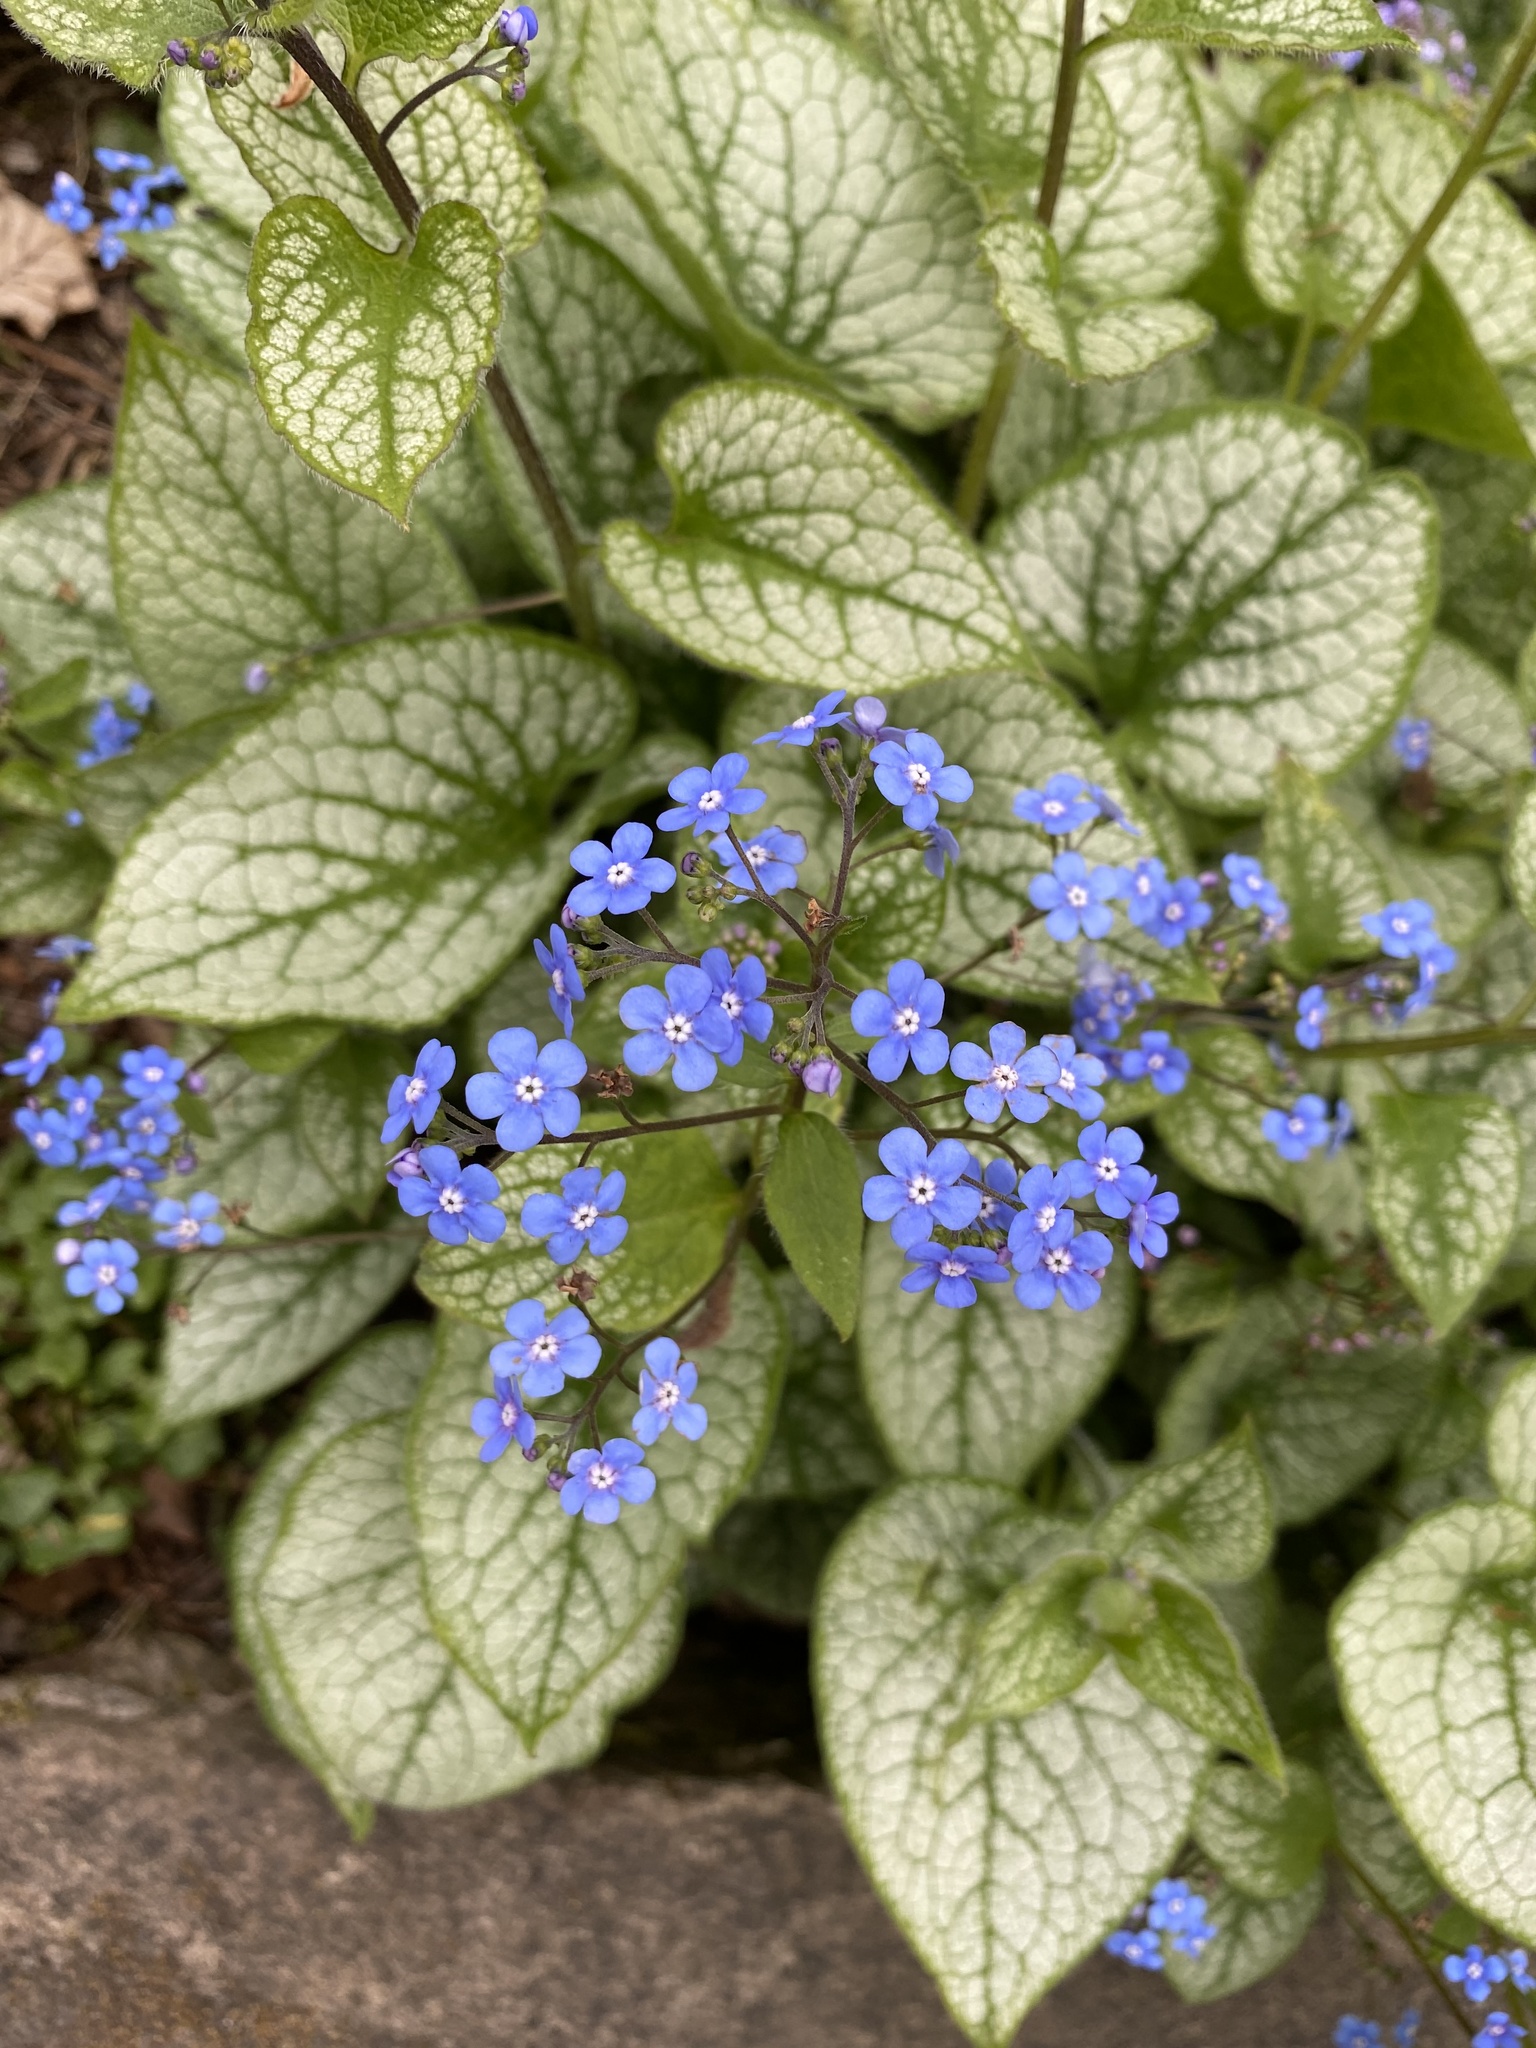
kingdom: Plantae
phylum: Tracheophyta
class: Magnoliopsida
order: Boraginales
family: Boraginaceae
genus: Brunnera
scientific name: Brunnera macrophylla
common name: Great forget-me-not
